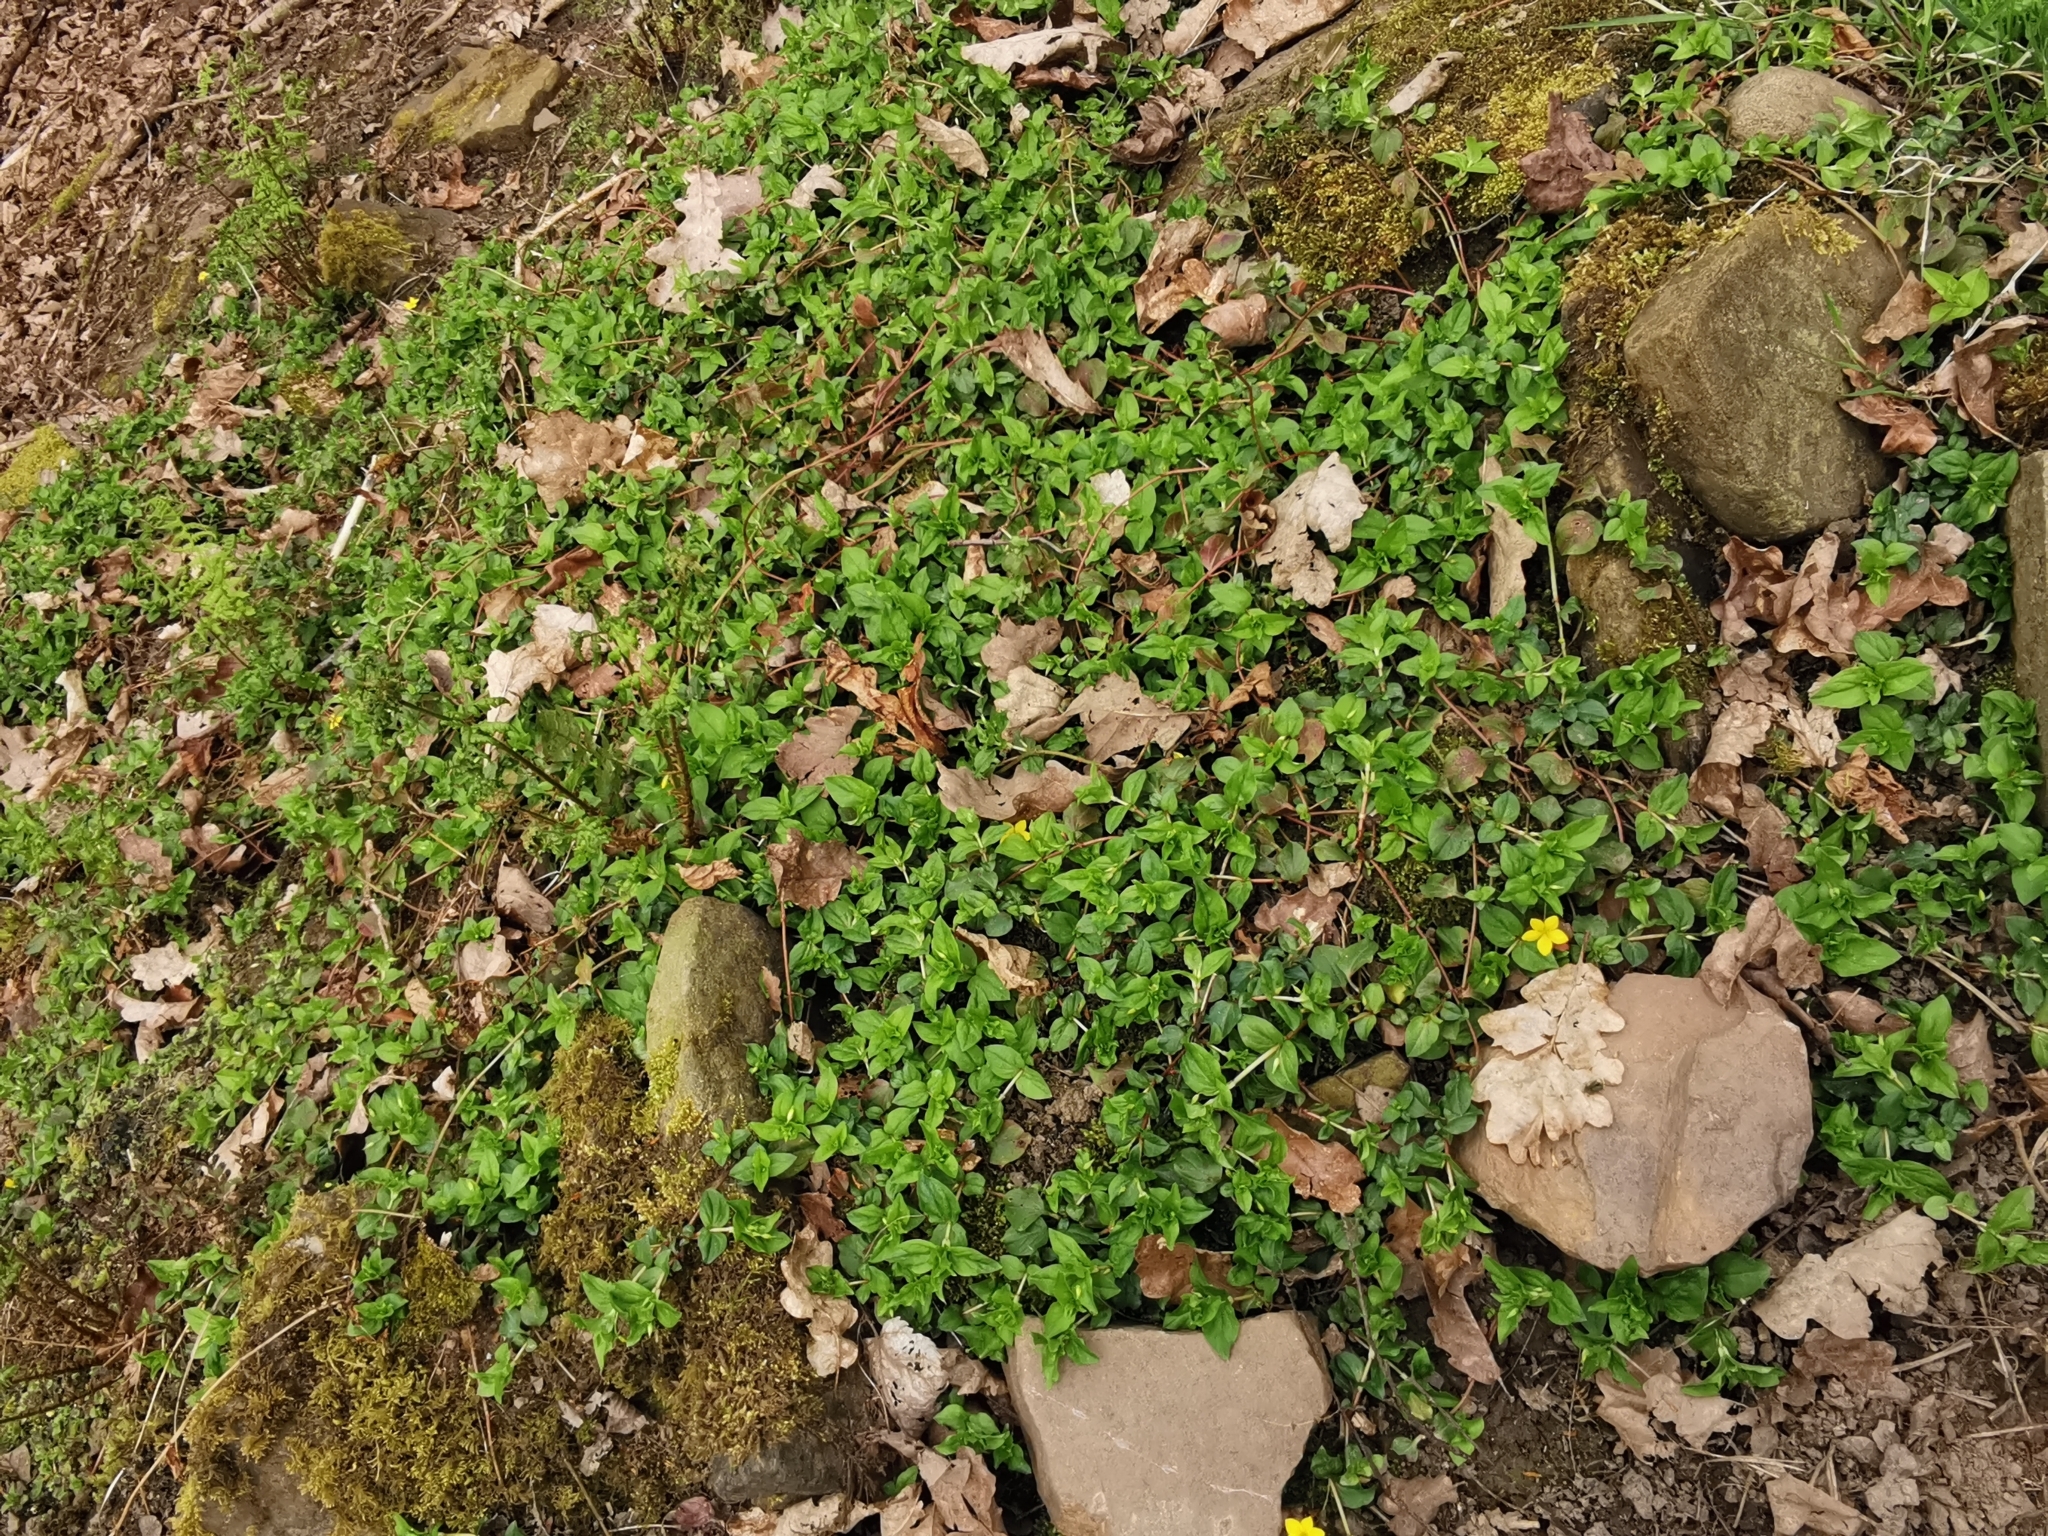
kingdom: Plantae
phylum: Tracheophyta
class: Magnoliopsida
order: Ericales
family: Primulaceae
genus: Lysimachia
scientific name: Lysimachia nemorum
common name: Yellow pimpernel
